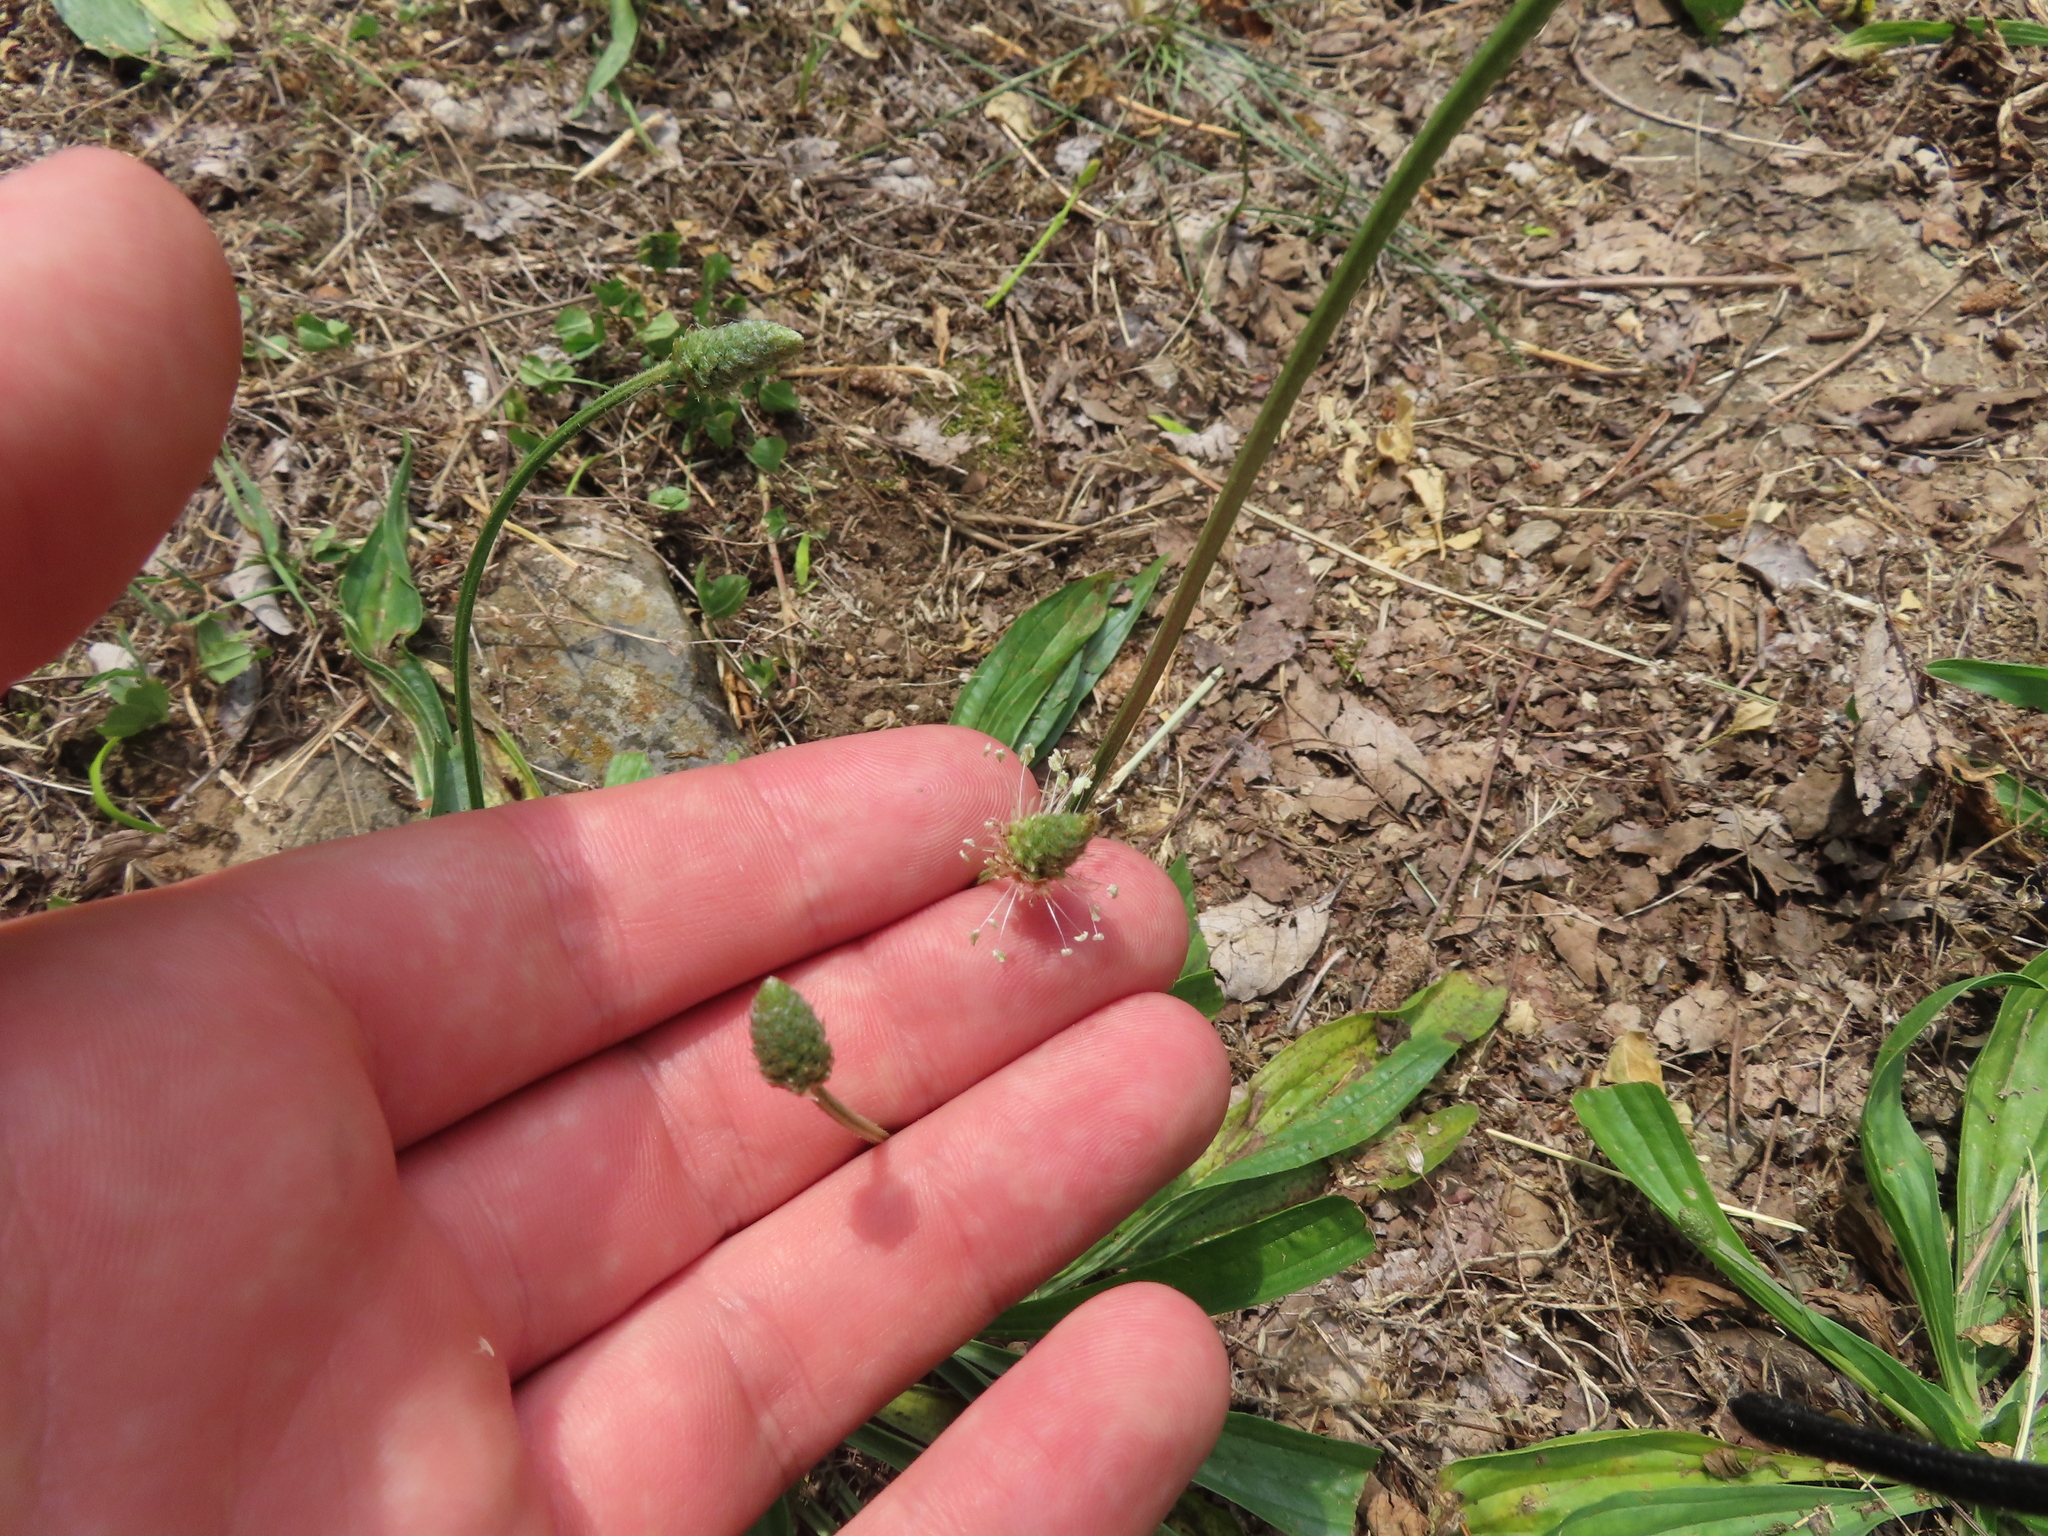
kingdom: Plantae
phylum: Tracheophyta
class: Magnoliopsida
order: Lamiales
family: Plantaginaceae
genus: Plantago
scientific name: Plantago lanceolata
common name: Ribwort plantain
